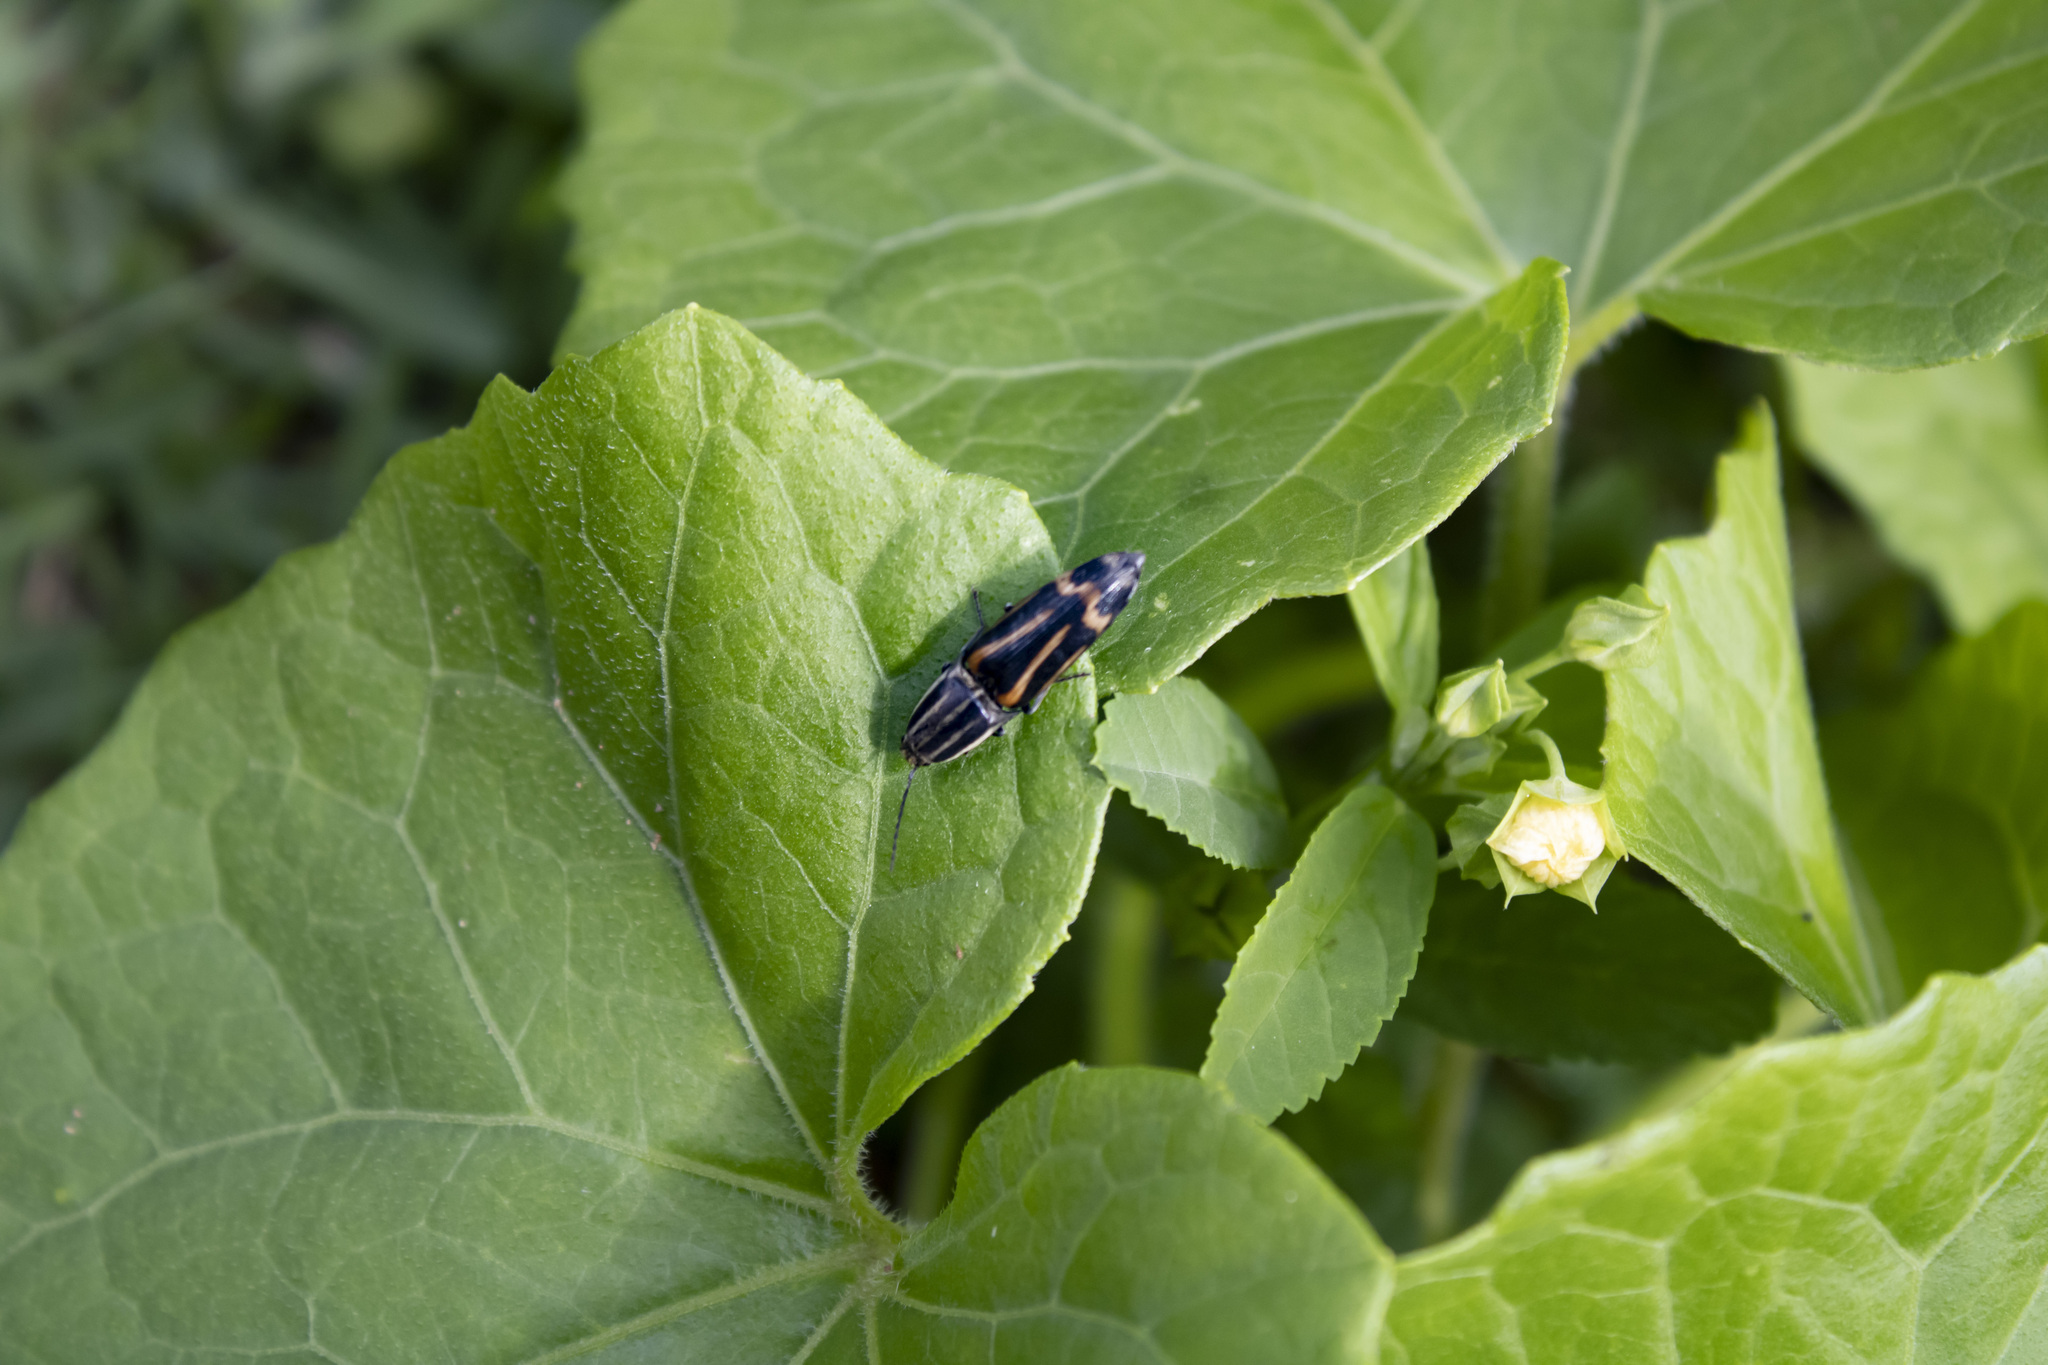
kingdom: Animalia
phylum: Arthropoda
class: Insecta
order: Coleoptera
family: Elateridae
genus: Monocrepidius
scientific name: Monocrepidius
